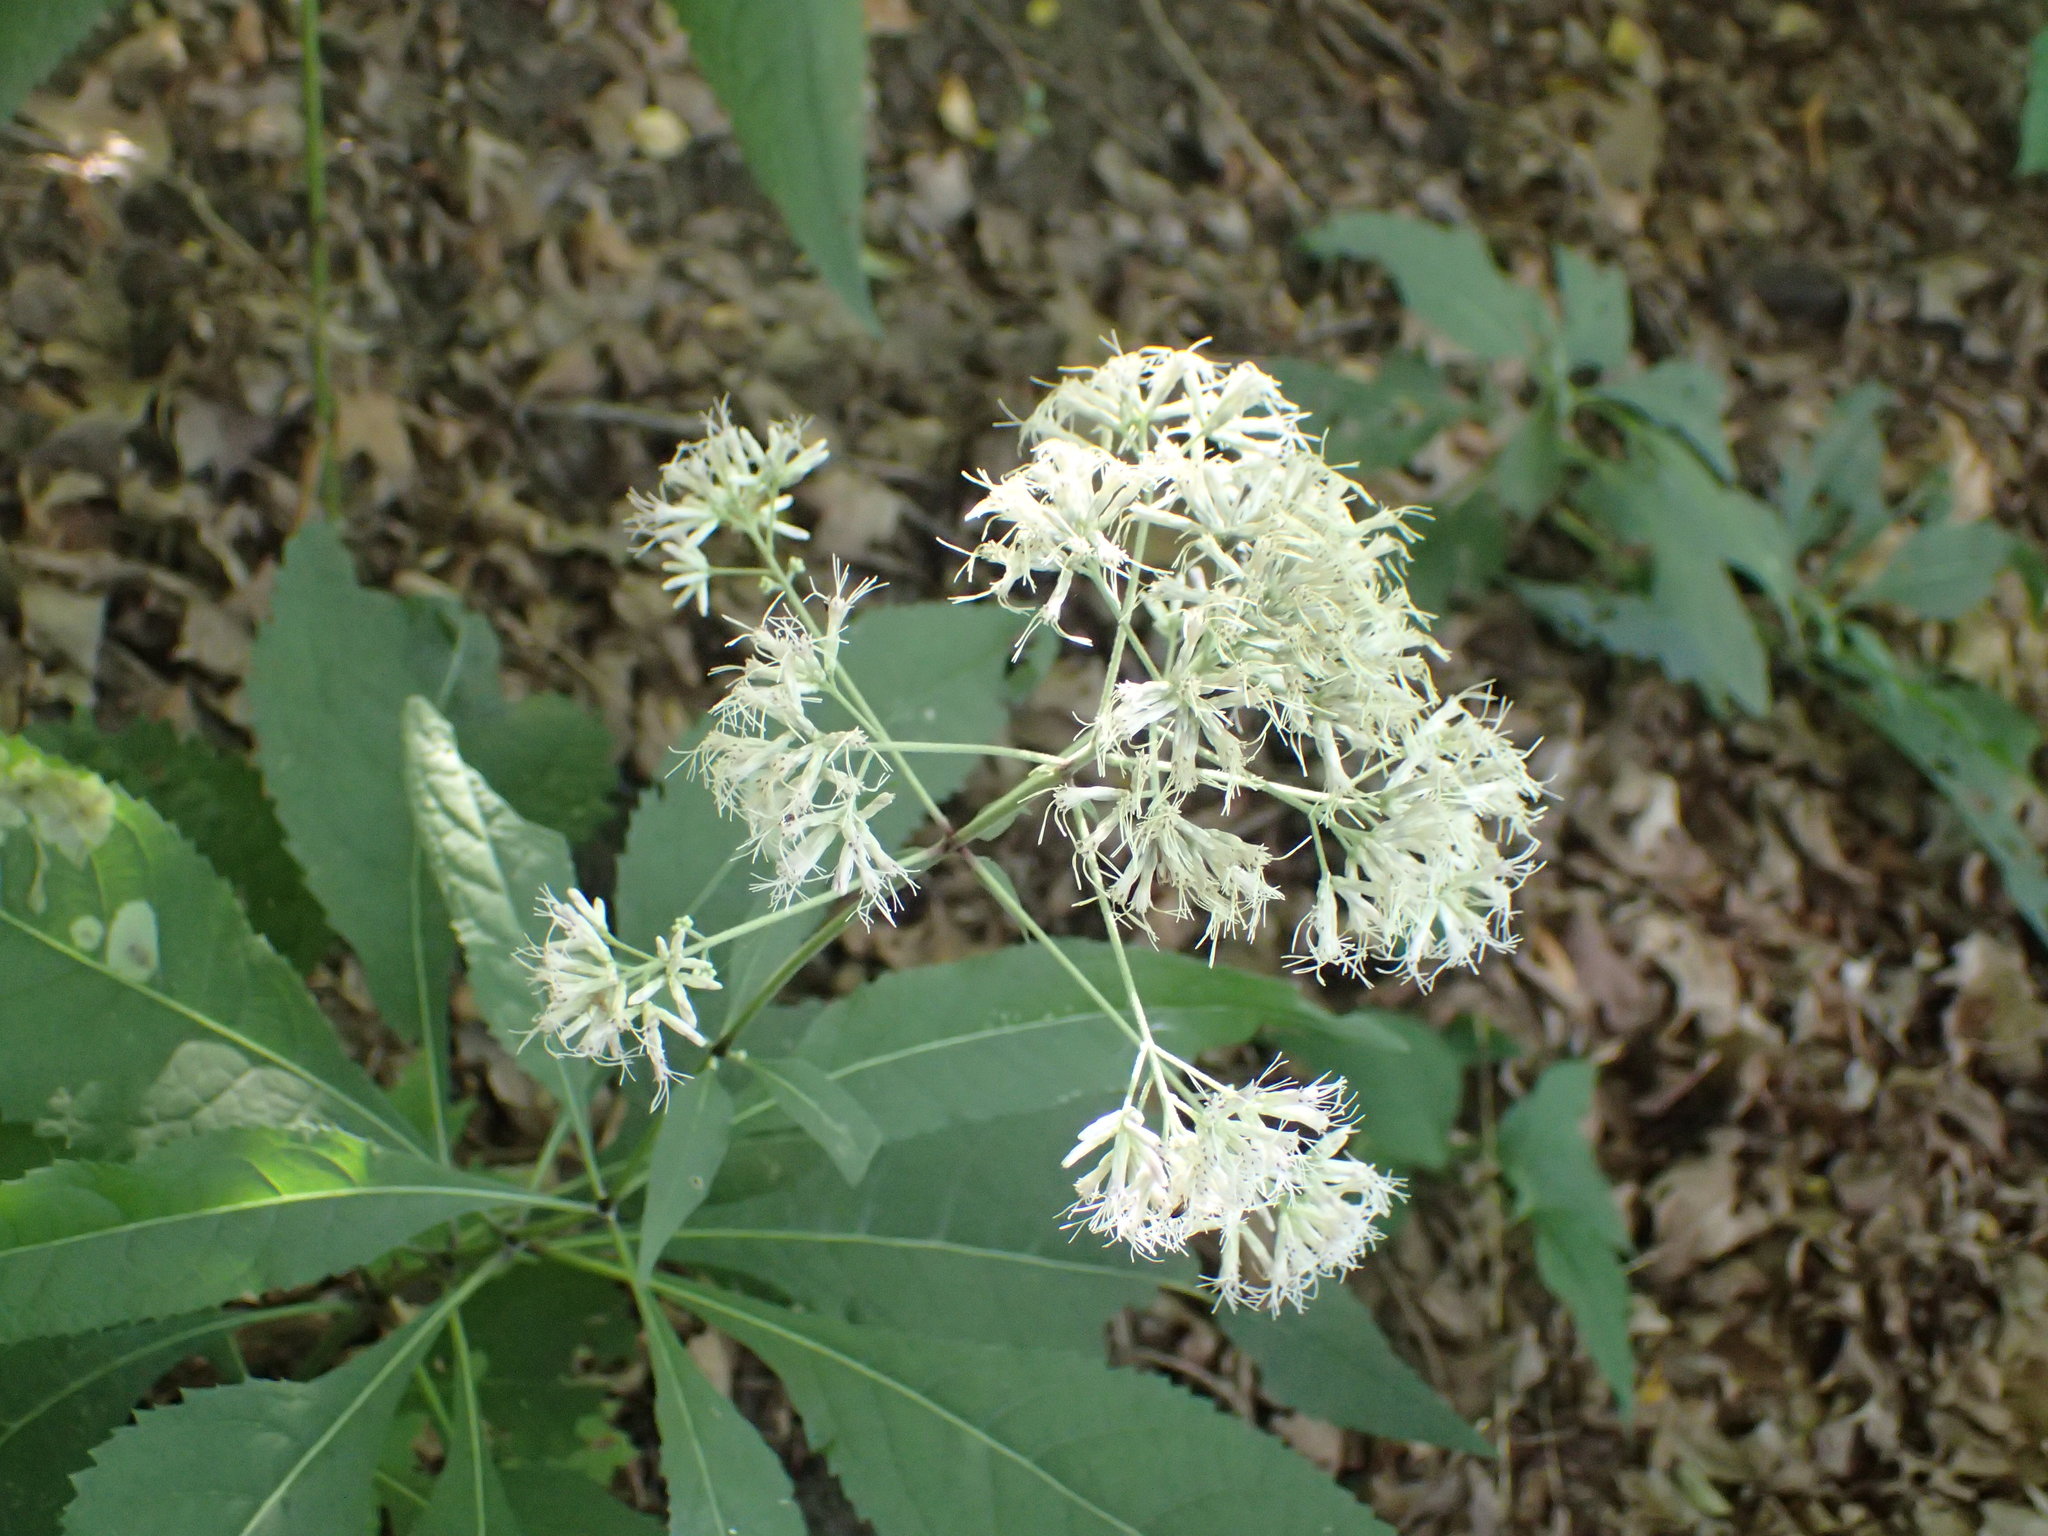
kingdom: Plantae
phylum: Tracheophyta
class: Magnoliopsida
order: Asterales
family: Asteraceae
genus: Eutrochium
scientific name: Eutrochium purpureum
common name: Gravelroot
